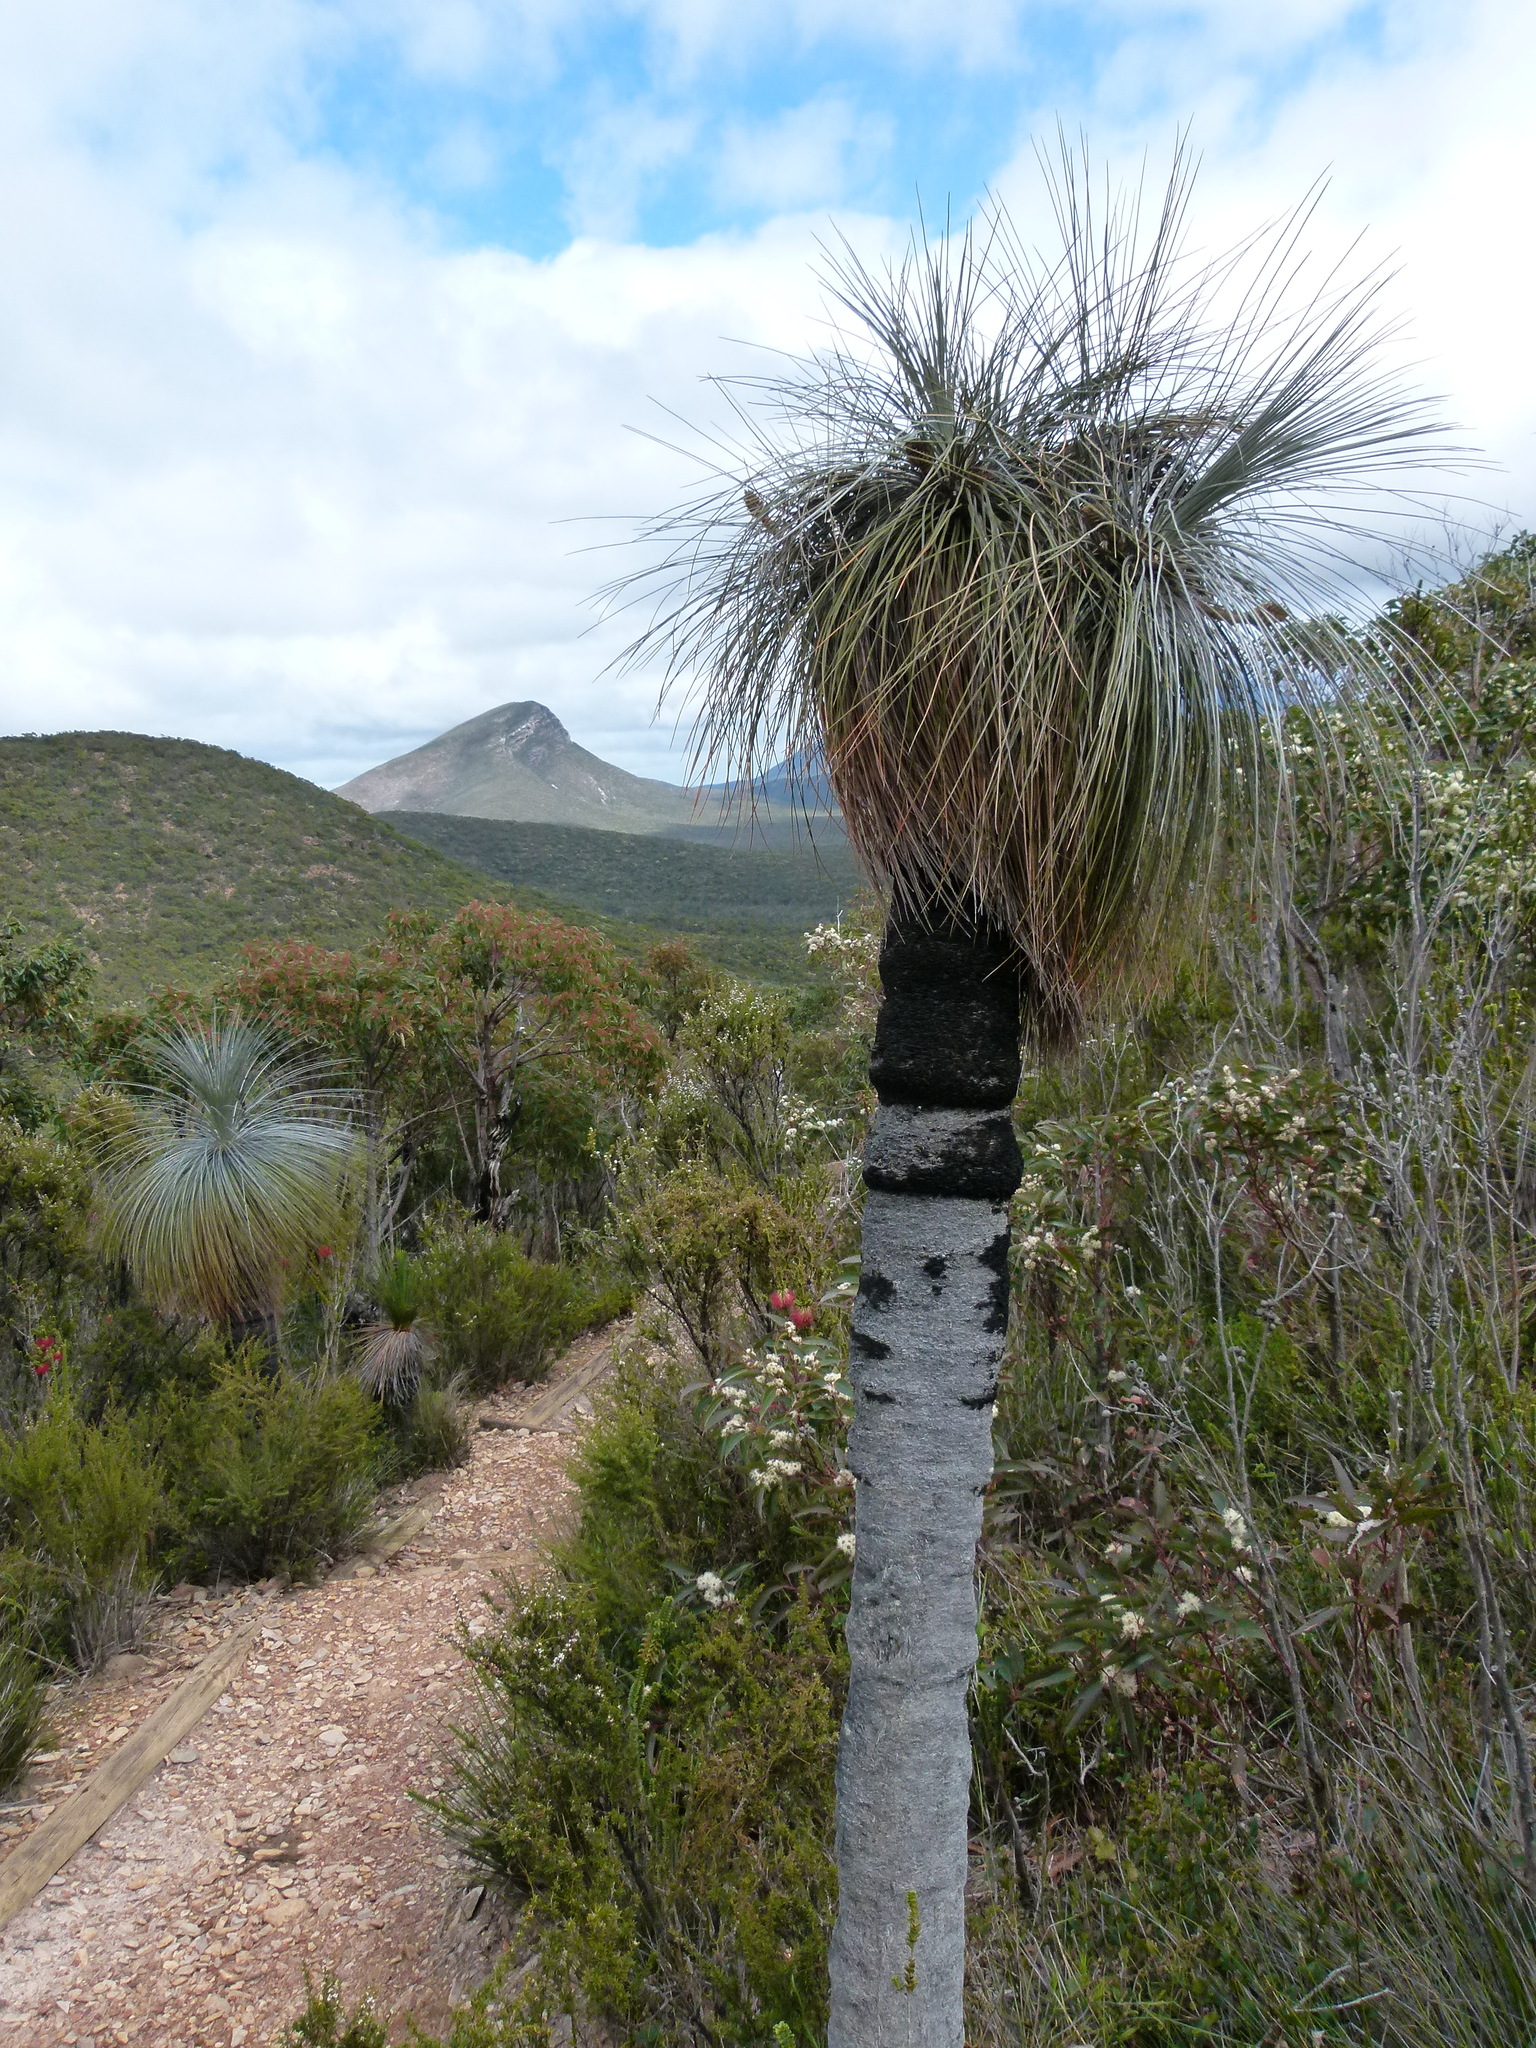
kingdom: Plantae
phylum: Tracheophyta
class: Liliopsida
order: Arecales
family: Dasypogonaceae
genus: Kingia
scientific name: Kingia australis
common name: Black gin
